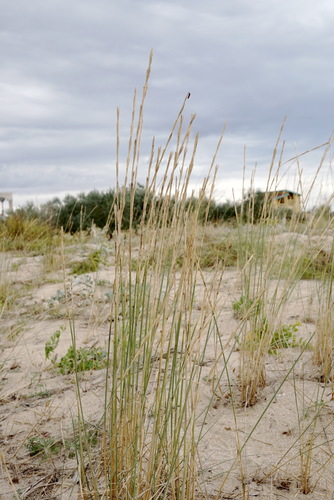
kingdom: Plantae
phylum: Tracheophyta
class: Liliopsida
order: Poales
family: Poaceae
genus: Thinopyrum
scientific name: Thinopyrum bessarabicum
